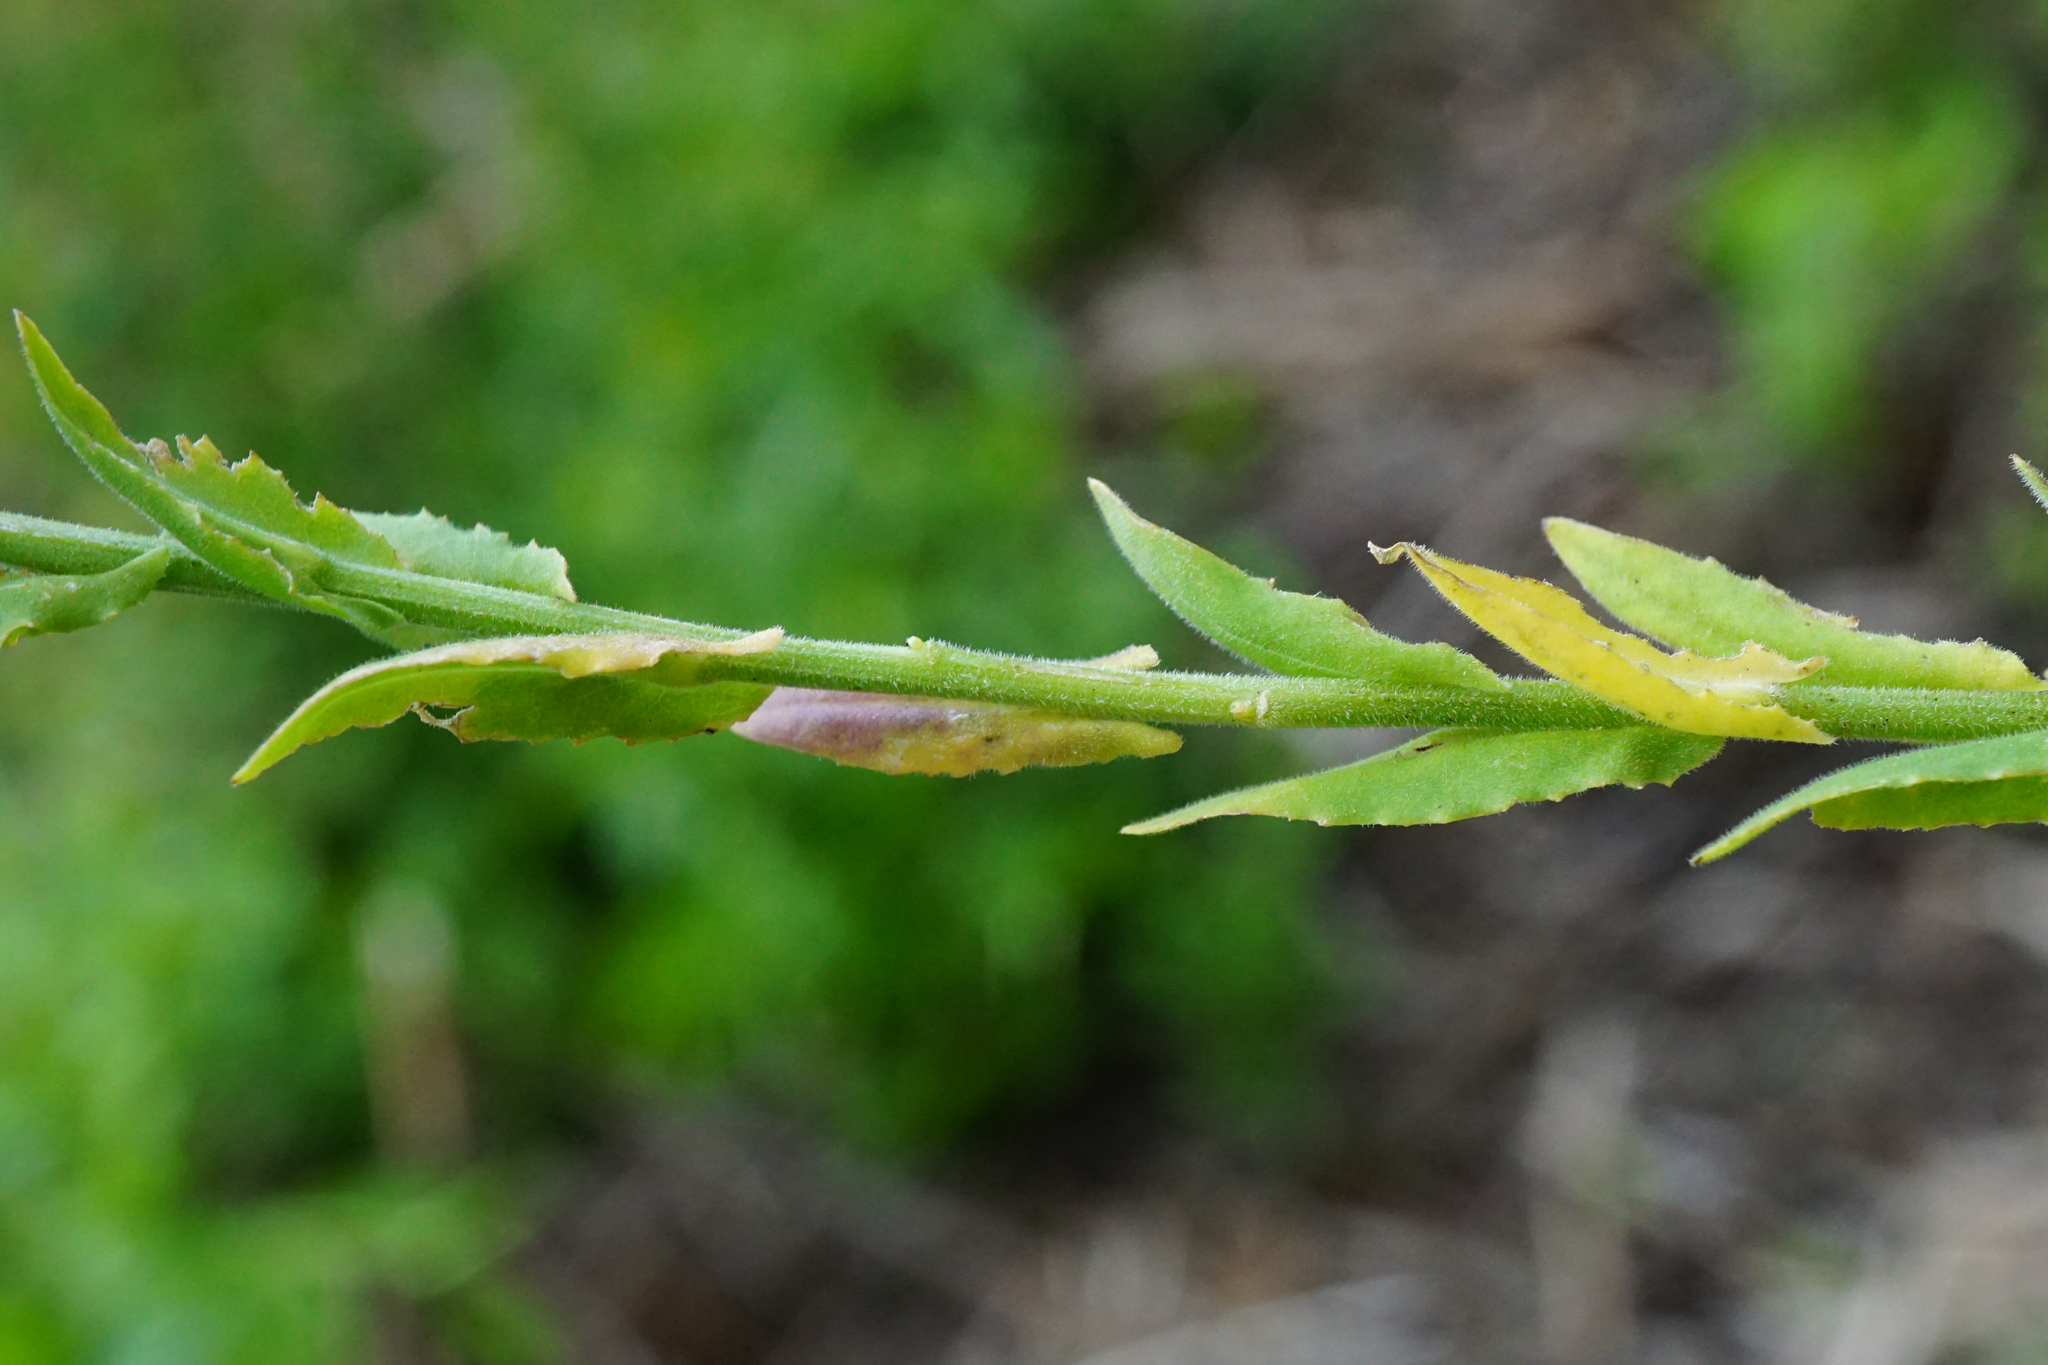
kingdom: Plantae
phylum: Tracheophyta
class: Magnoliopsida
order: Brassicales
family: Brassicaceae
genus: Lepidium
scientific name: Lepidium campestre
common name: Field pepperwort
